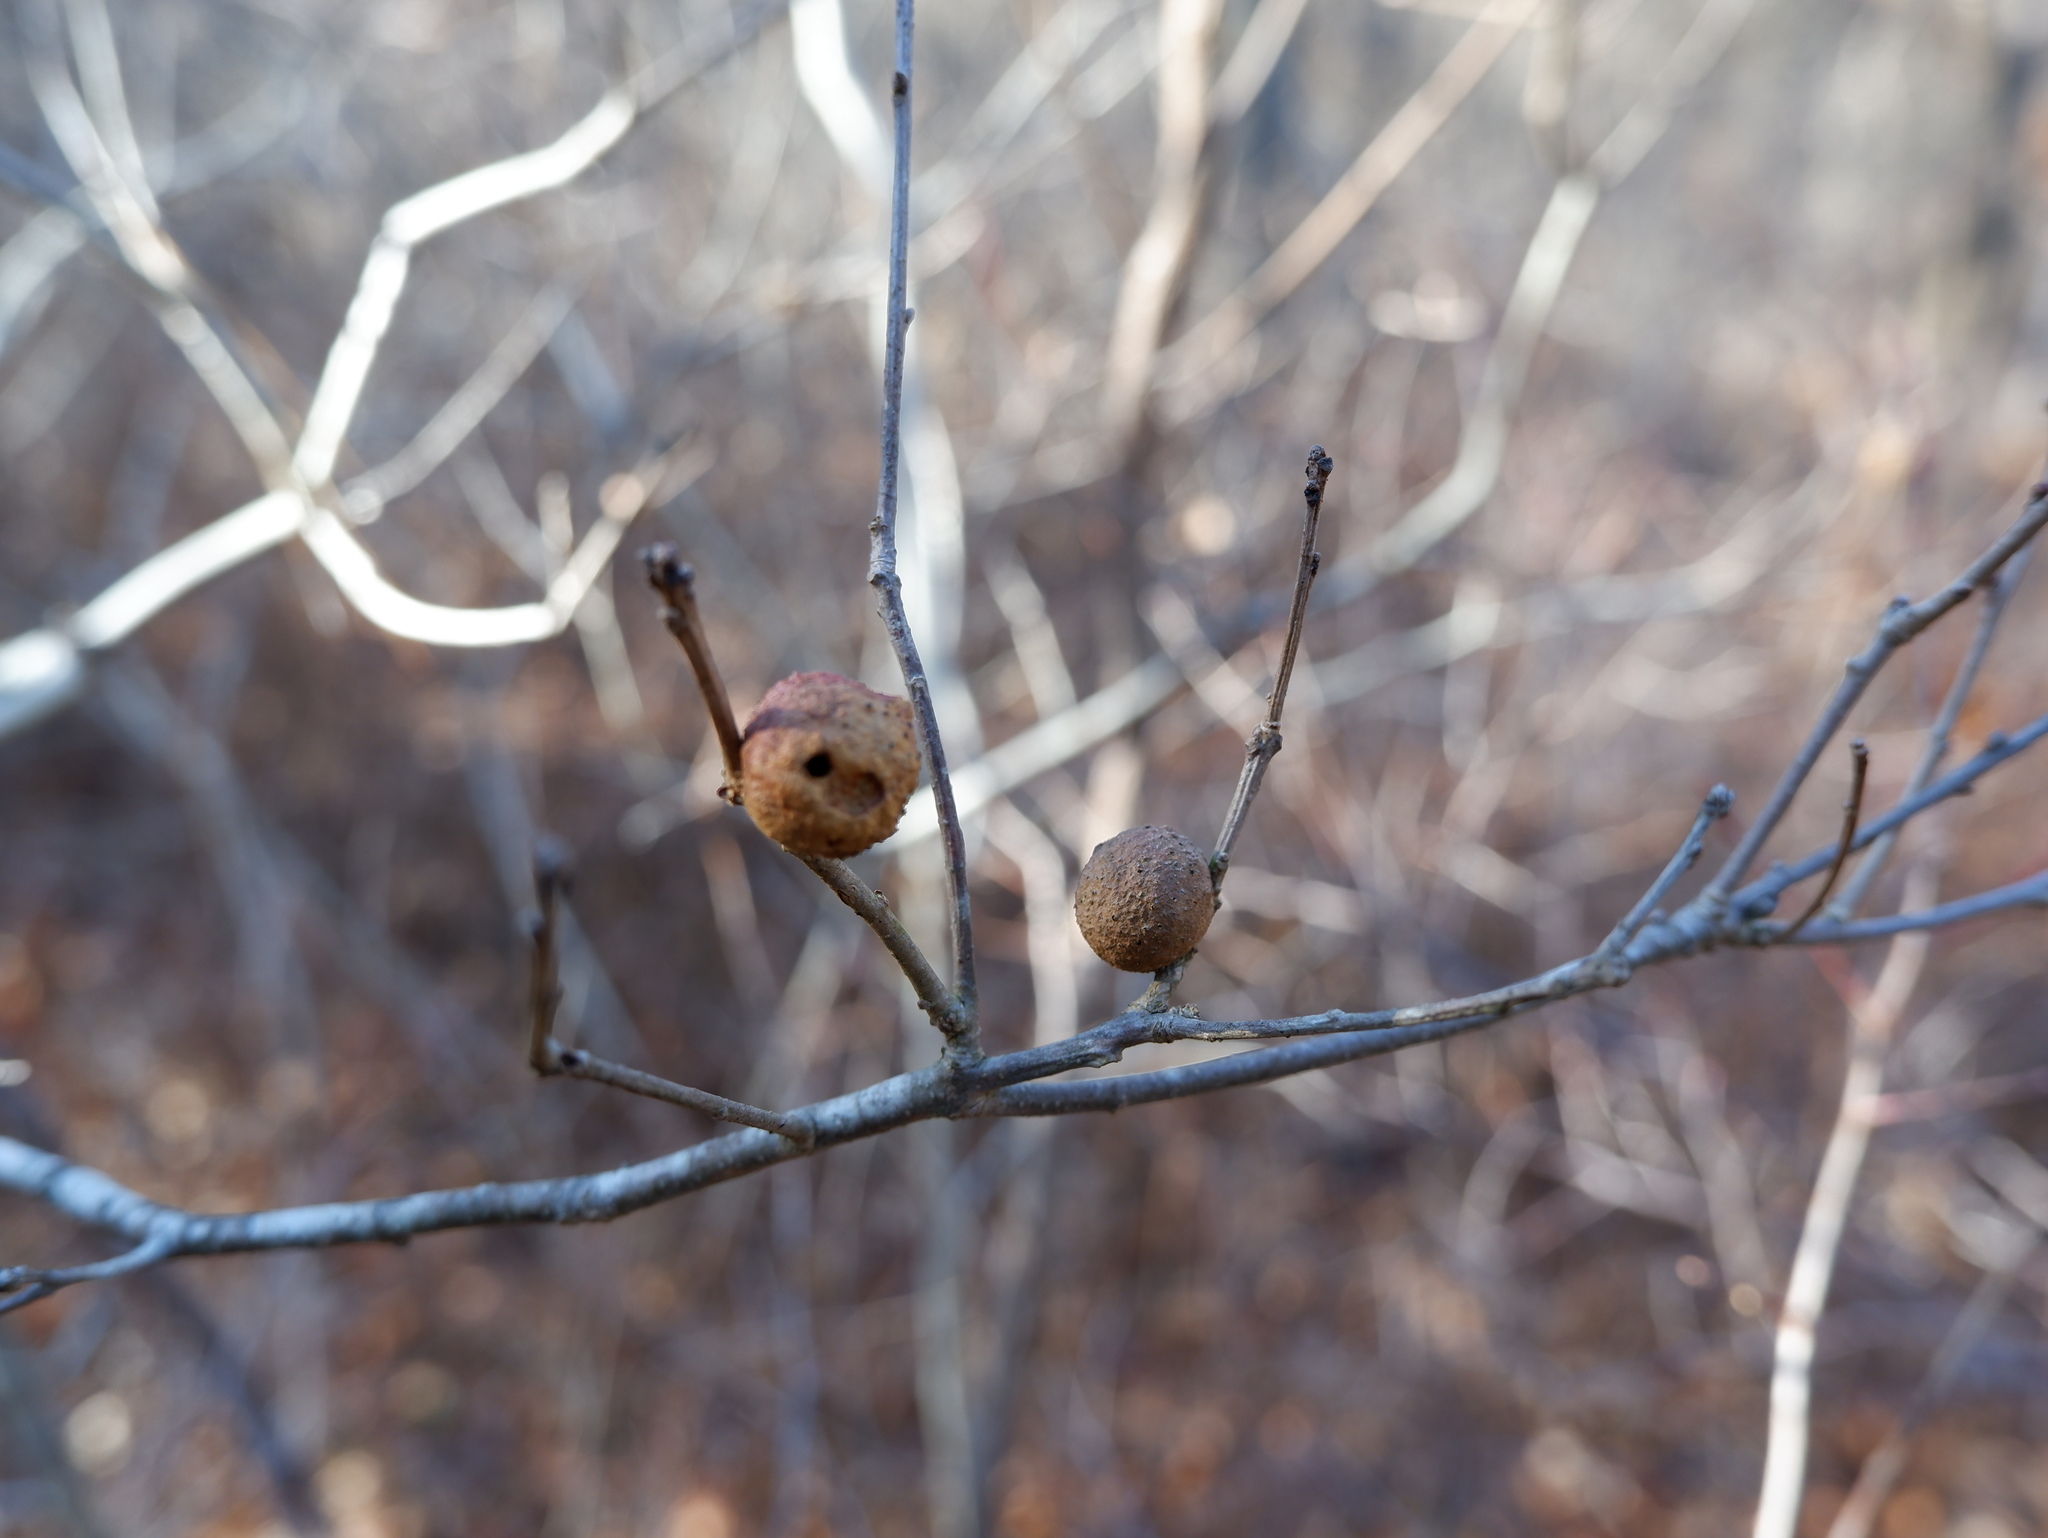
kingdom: Animalia
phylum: Arthropoda
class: Insecta
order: Hymenoptera
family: Cynipidae
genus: Disholcaspis
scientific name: Disholcaspis quercusglobulus
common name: Round bullet gall wasp
